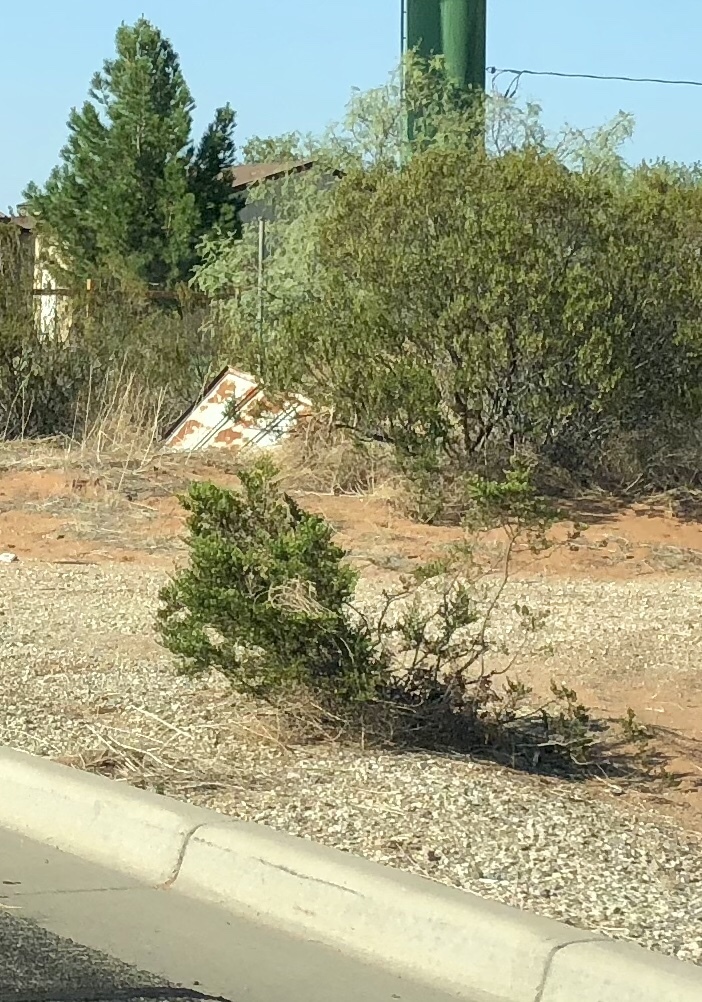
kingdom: Plantae
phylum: Tracheophyta
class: Magnoliopsida
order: Zygophyllales
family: Zygophyllaceae
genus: Larrea
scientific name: Larrea tridentata
